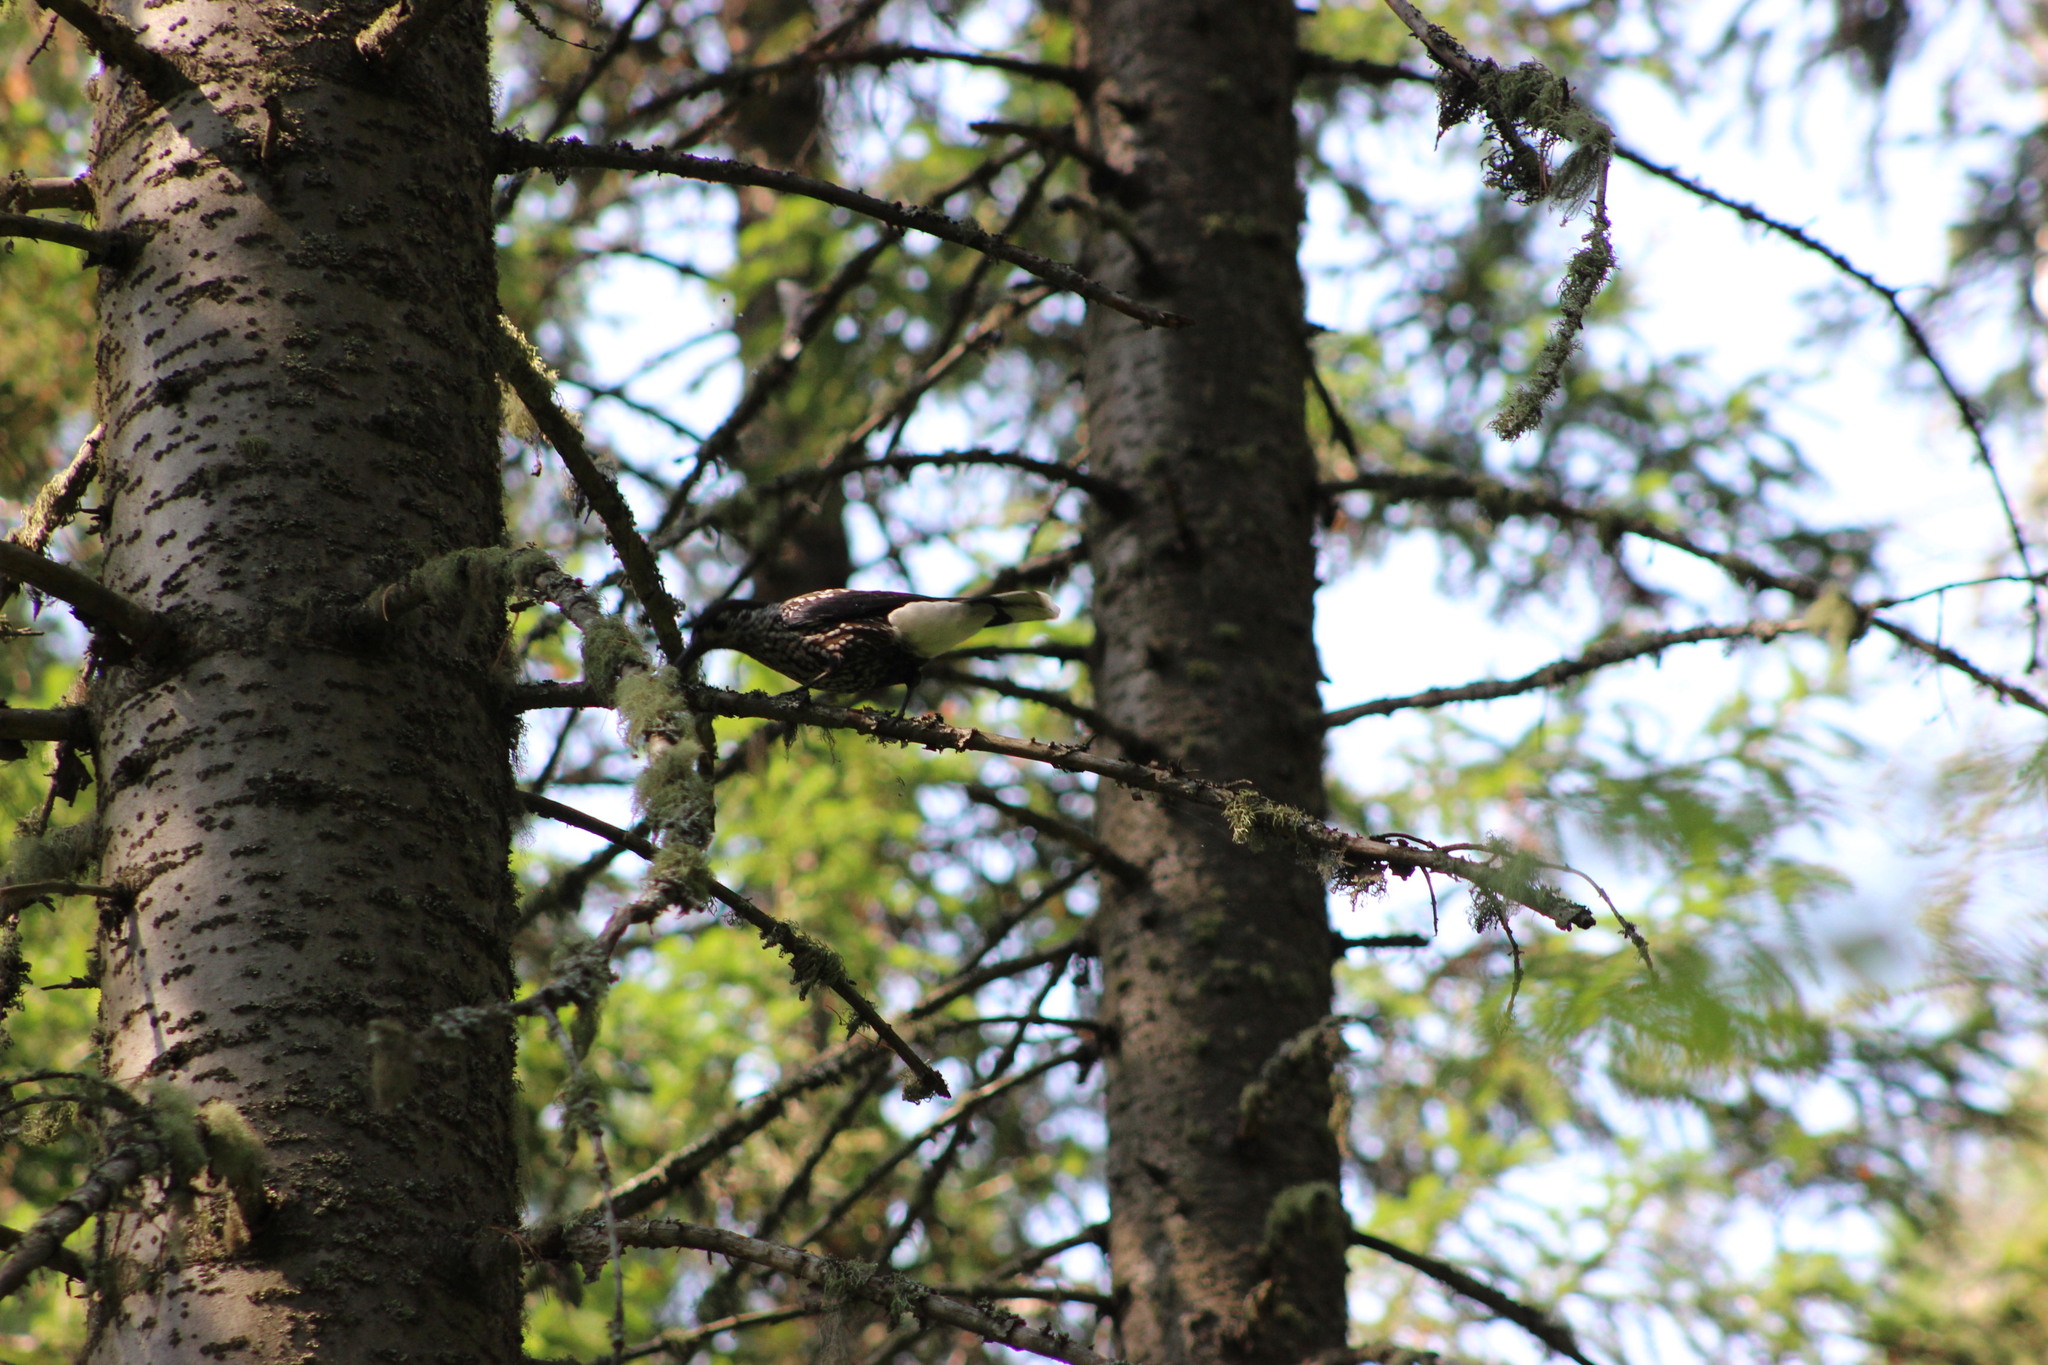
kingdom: Animalia
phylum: Chordata
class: Aves
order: Passeriformes
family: Corvidae
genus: Nucifraga
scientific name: Nucifraga caryocatactes
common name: Spotted nutcracker
